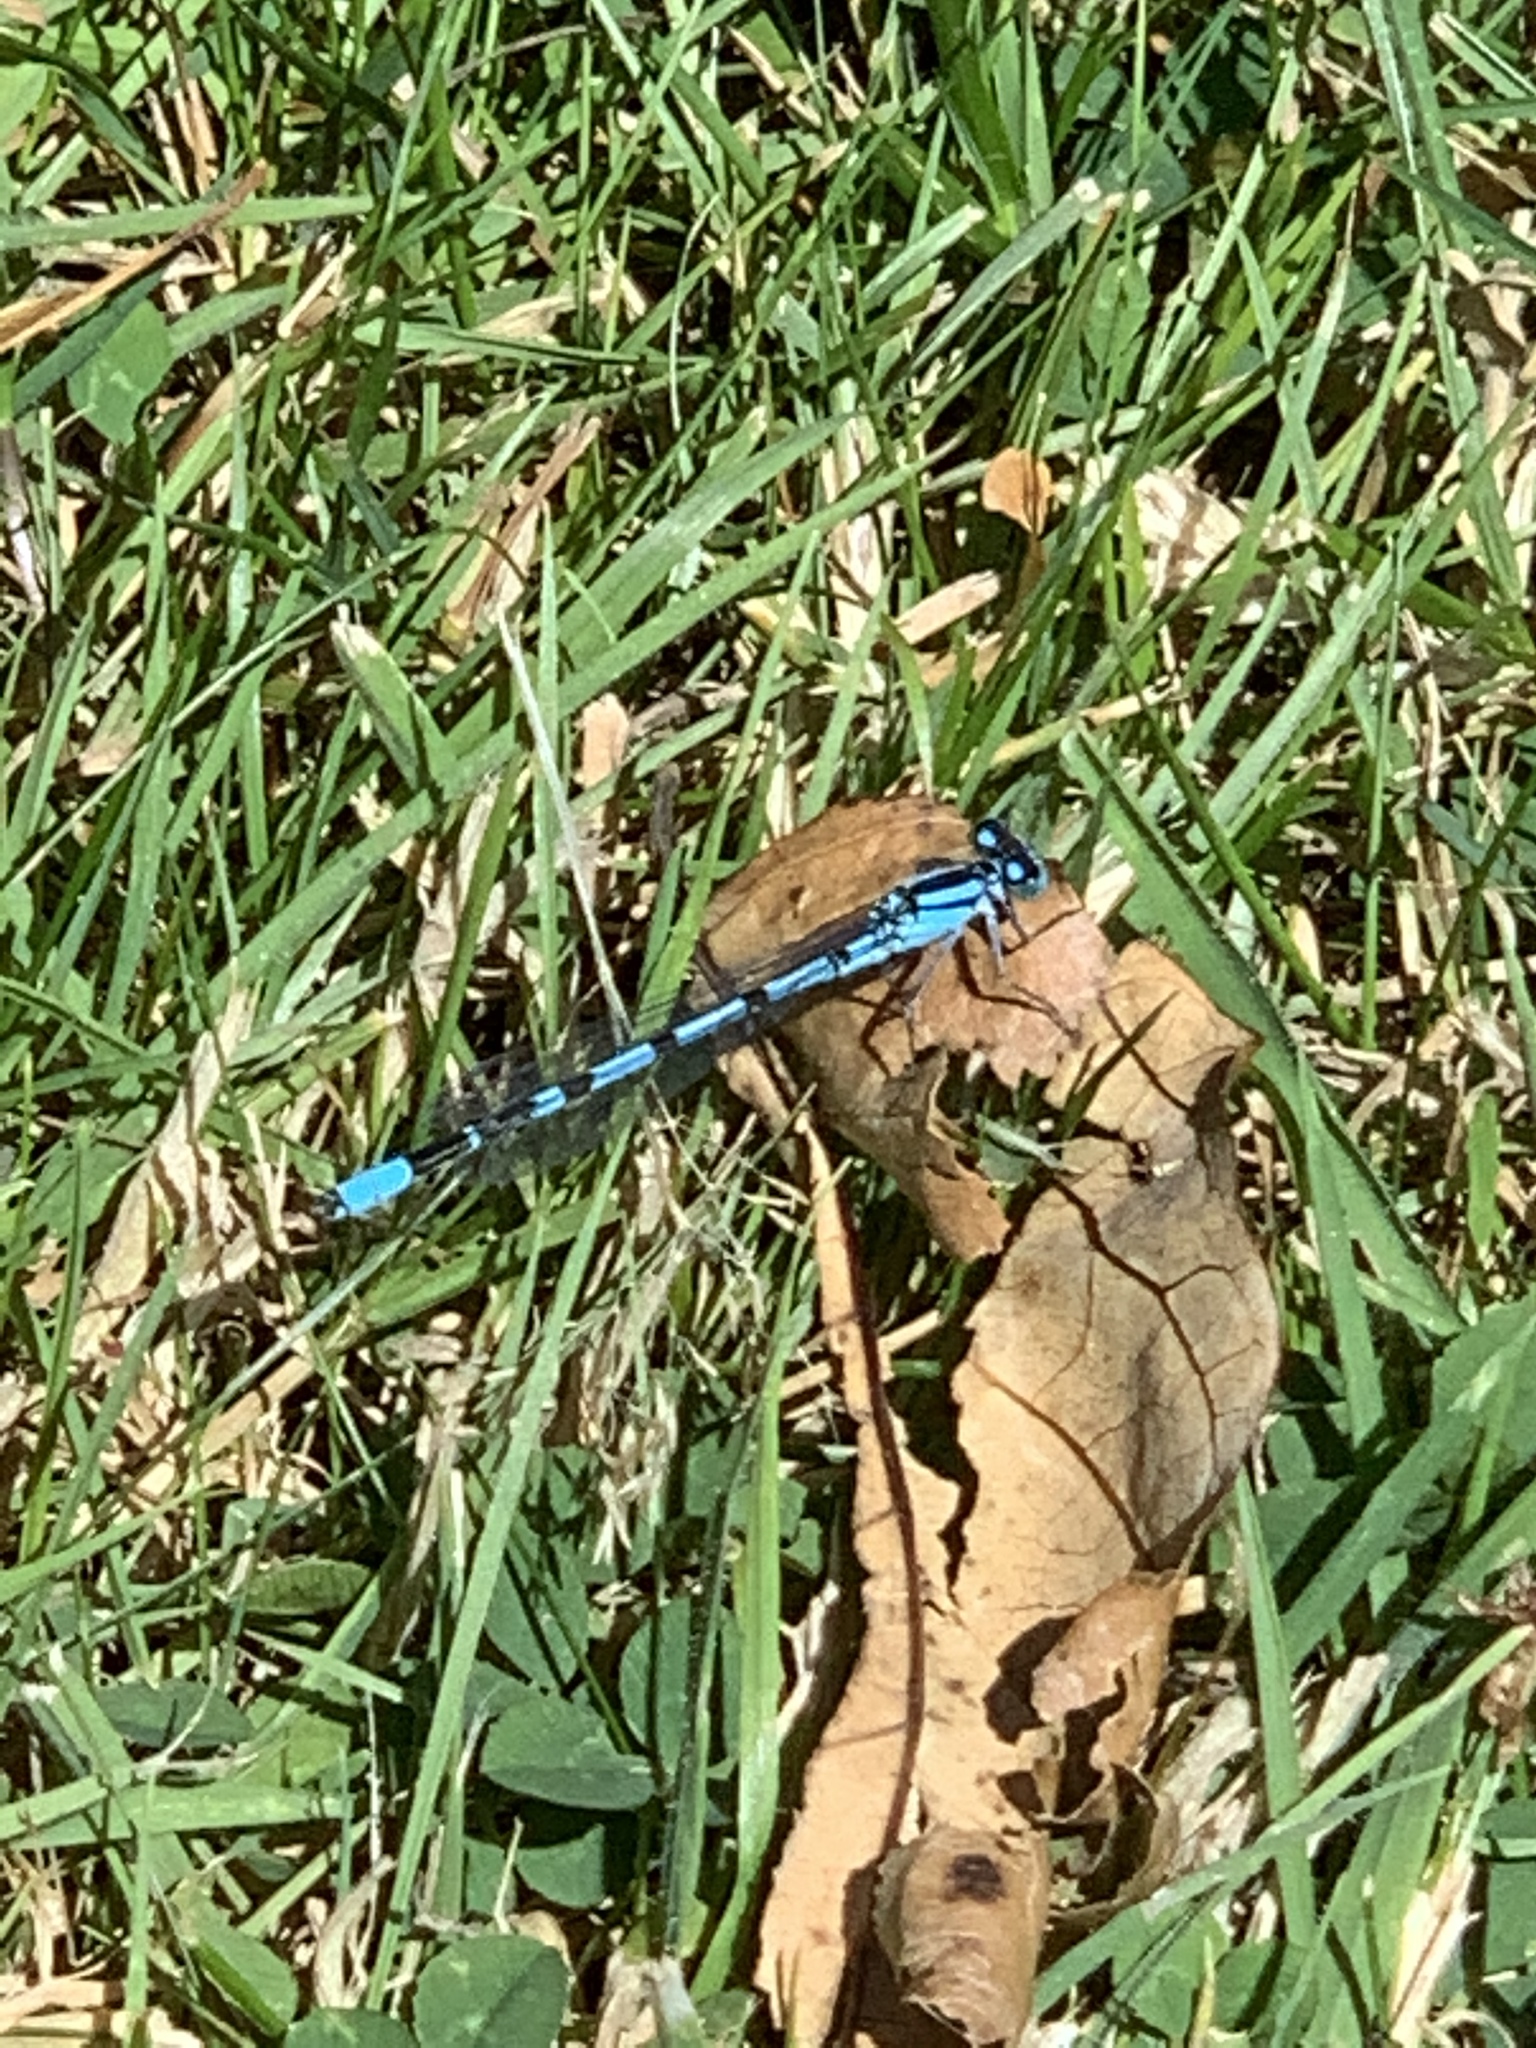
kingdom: Animalia
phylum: Arthropoda
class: Insecta
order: Odonata
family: Coenagrionidae
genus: Enallagma
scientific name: Enallagma cyathigerum
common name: Common blue damselfly
